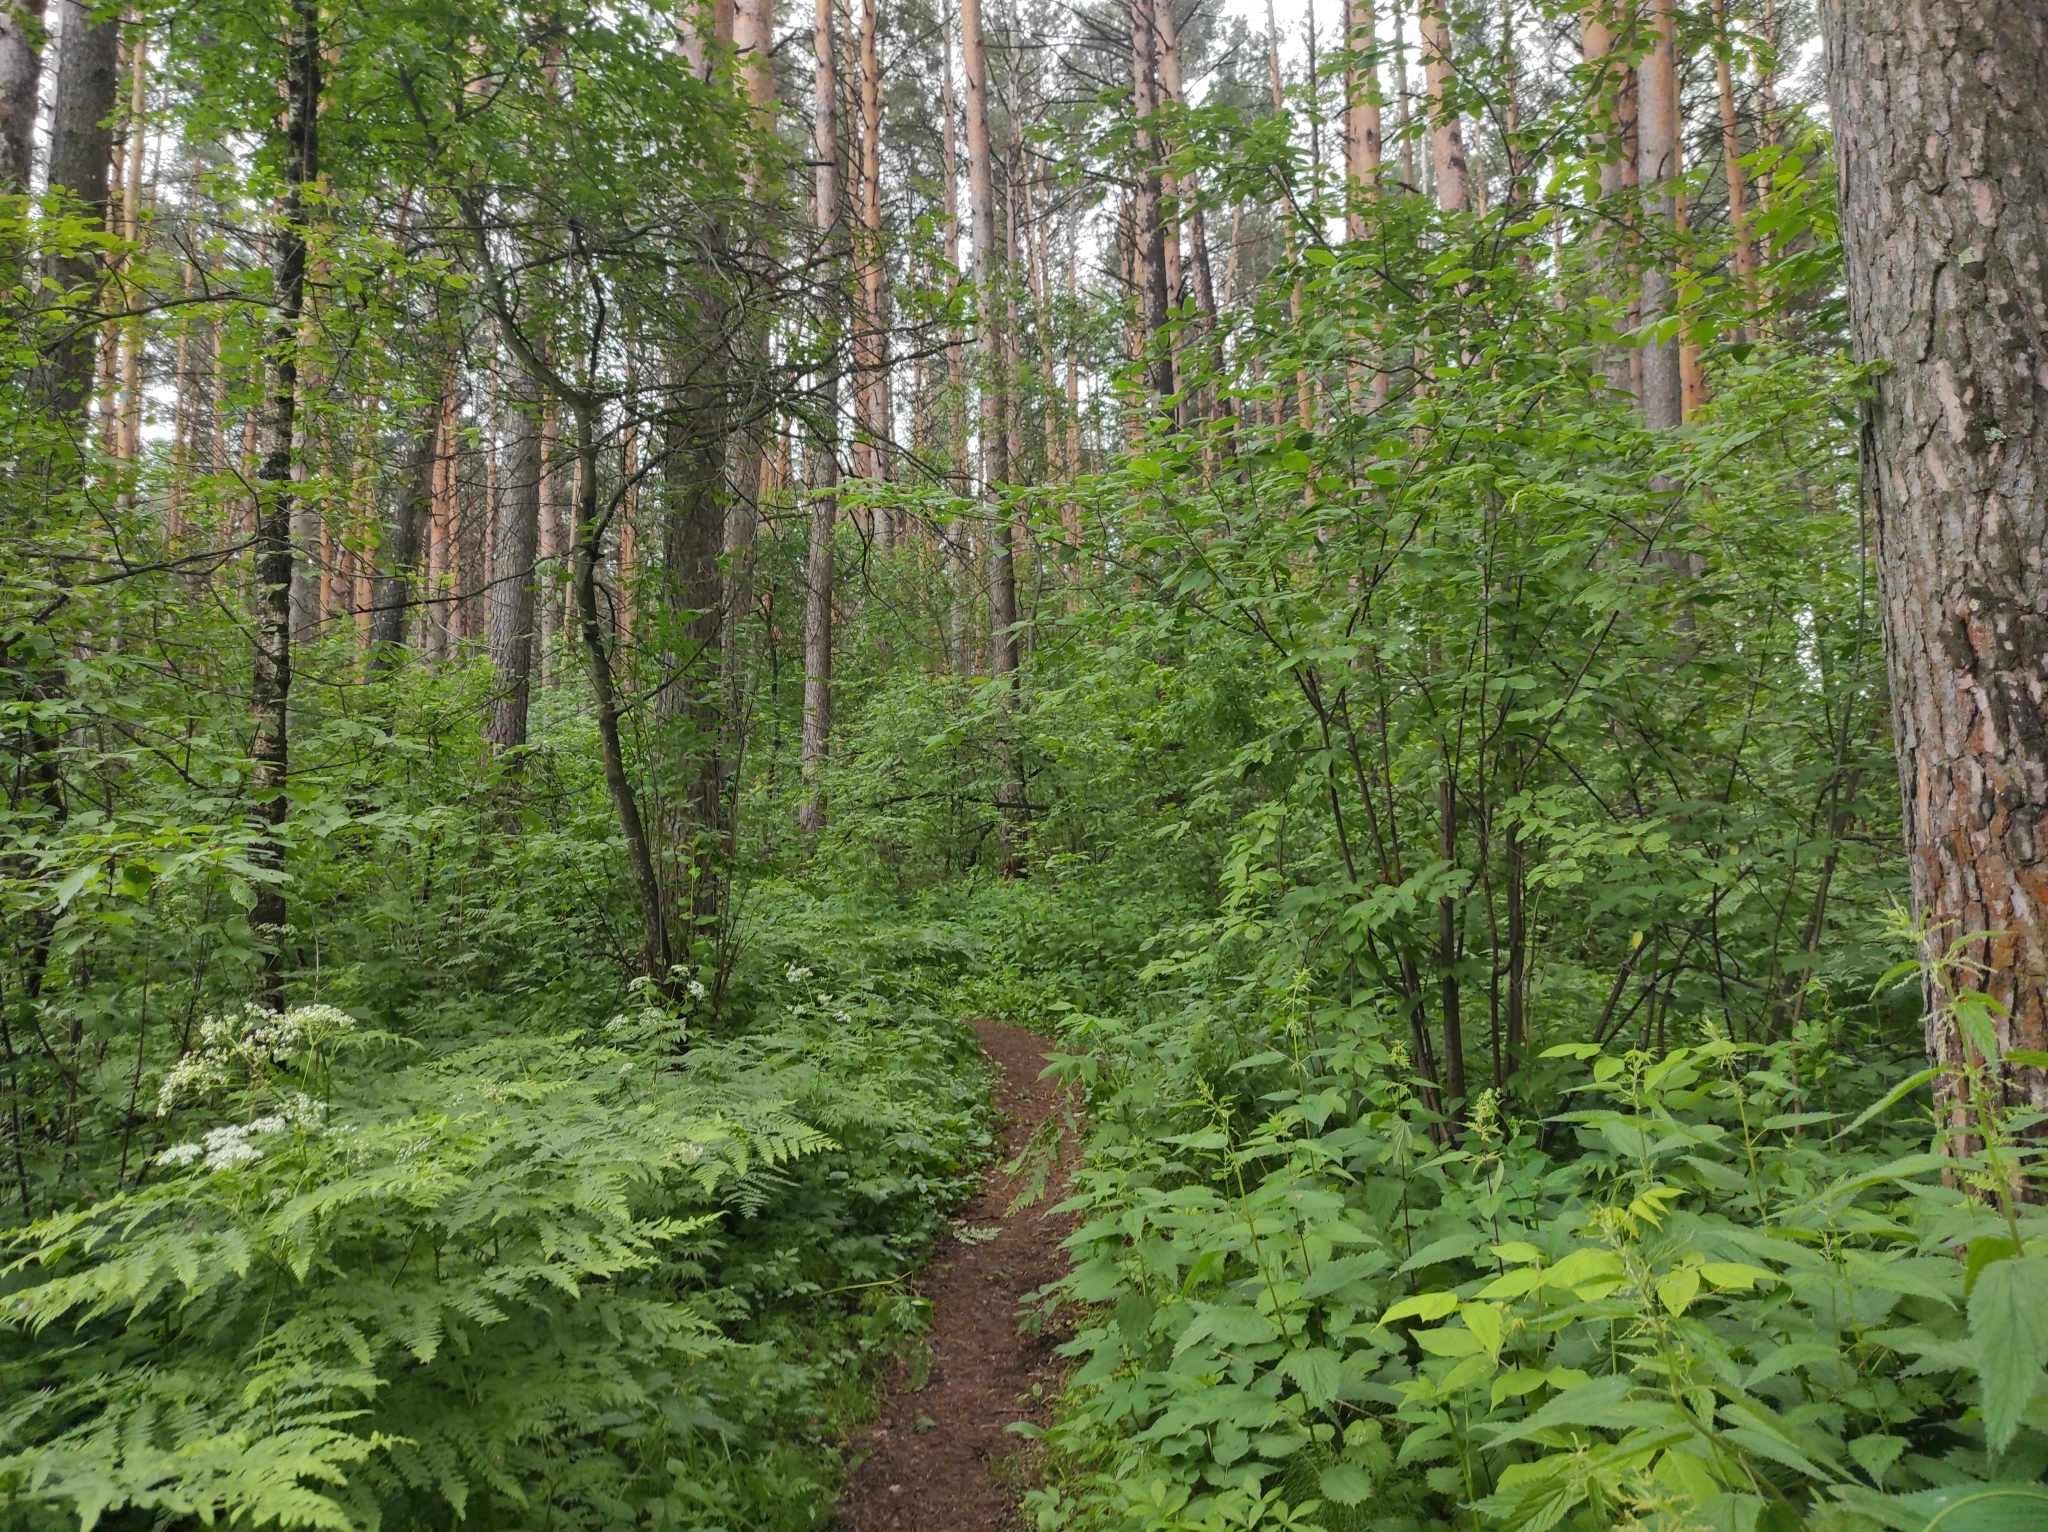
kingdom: Plantae
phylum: Tracheophyta
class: Pinopsida
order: Pinales
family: Pinaceae
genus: Pinus
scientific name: Pinus sylvestris
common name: Scots pine
